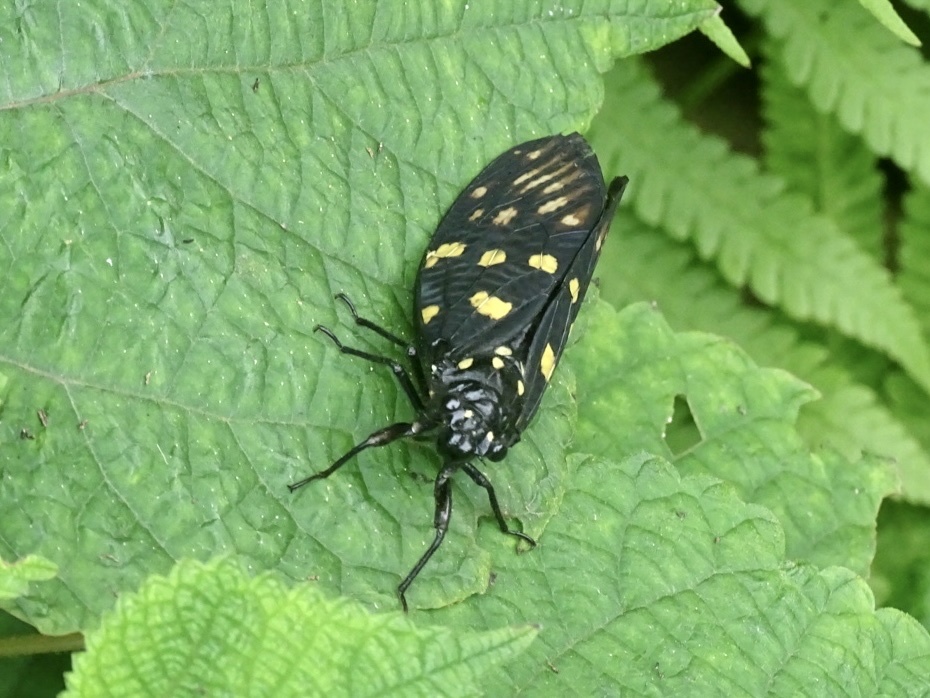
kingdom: Animalia
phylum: Arthropoda
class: Insecta
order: Hemiptera
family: Cicadidae
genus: Gaeana
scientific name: Gaeana maculata
